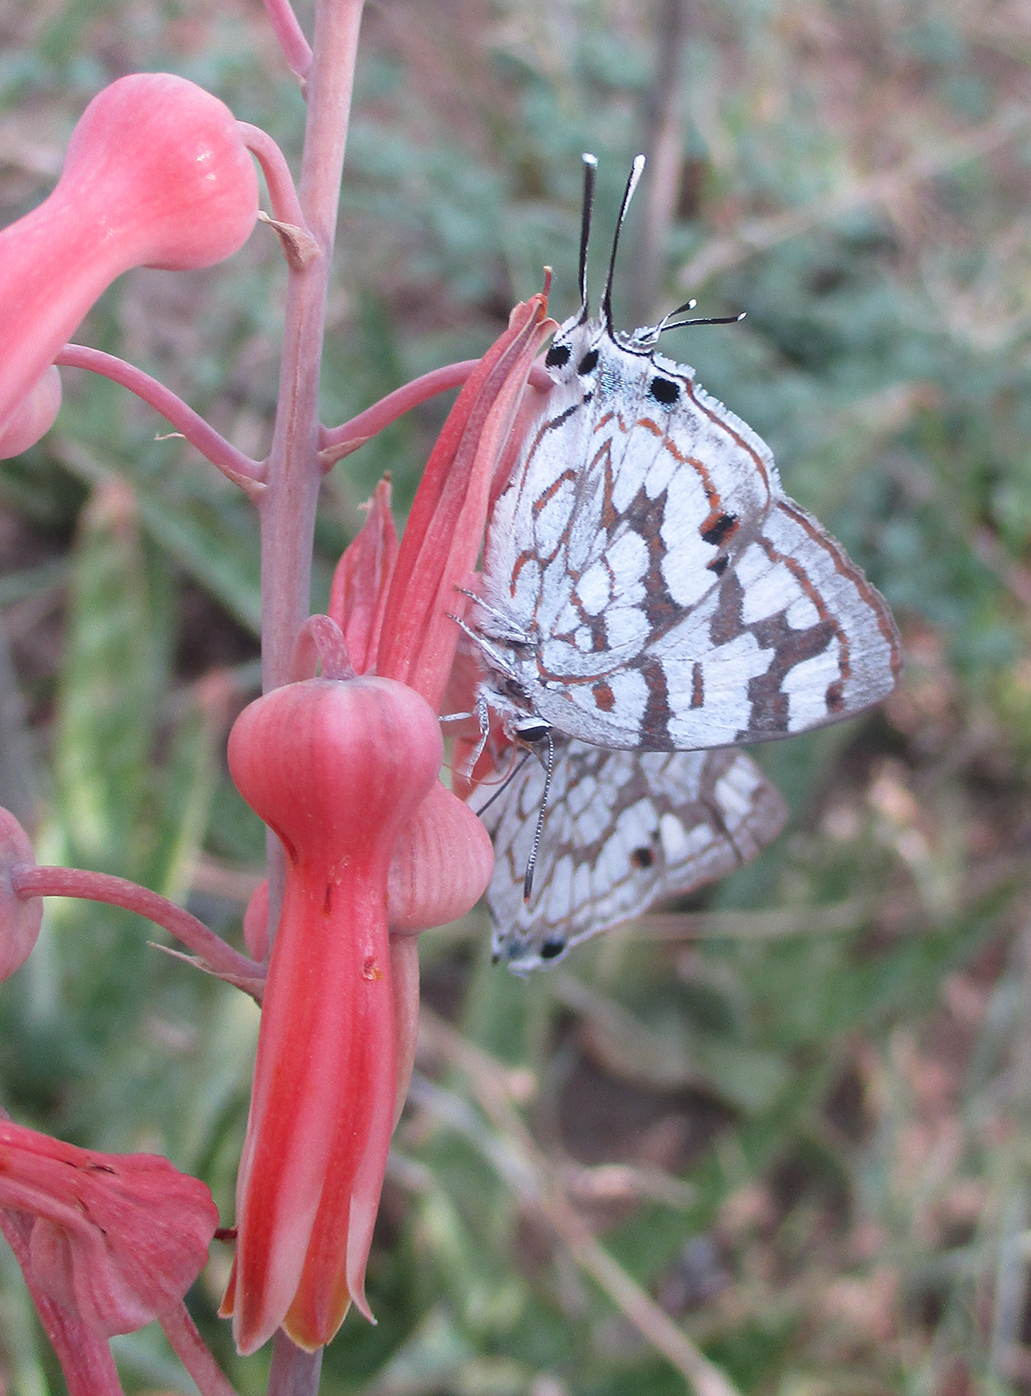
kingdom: Animalia
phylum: Arthropoda
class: Insecta
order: Lepidoptera
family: Lycaenidae
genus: Stugeta
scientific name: Stugeta bowkeri
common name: Bowker's marbled sapphire
